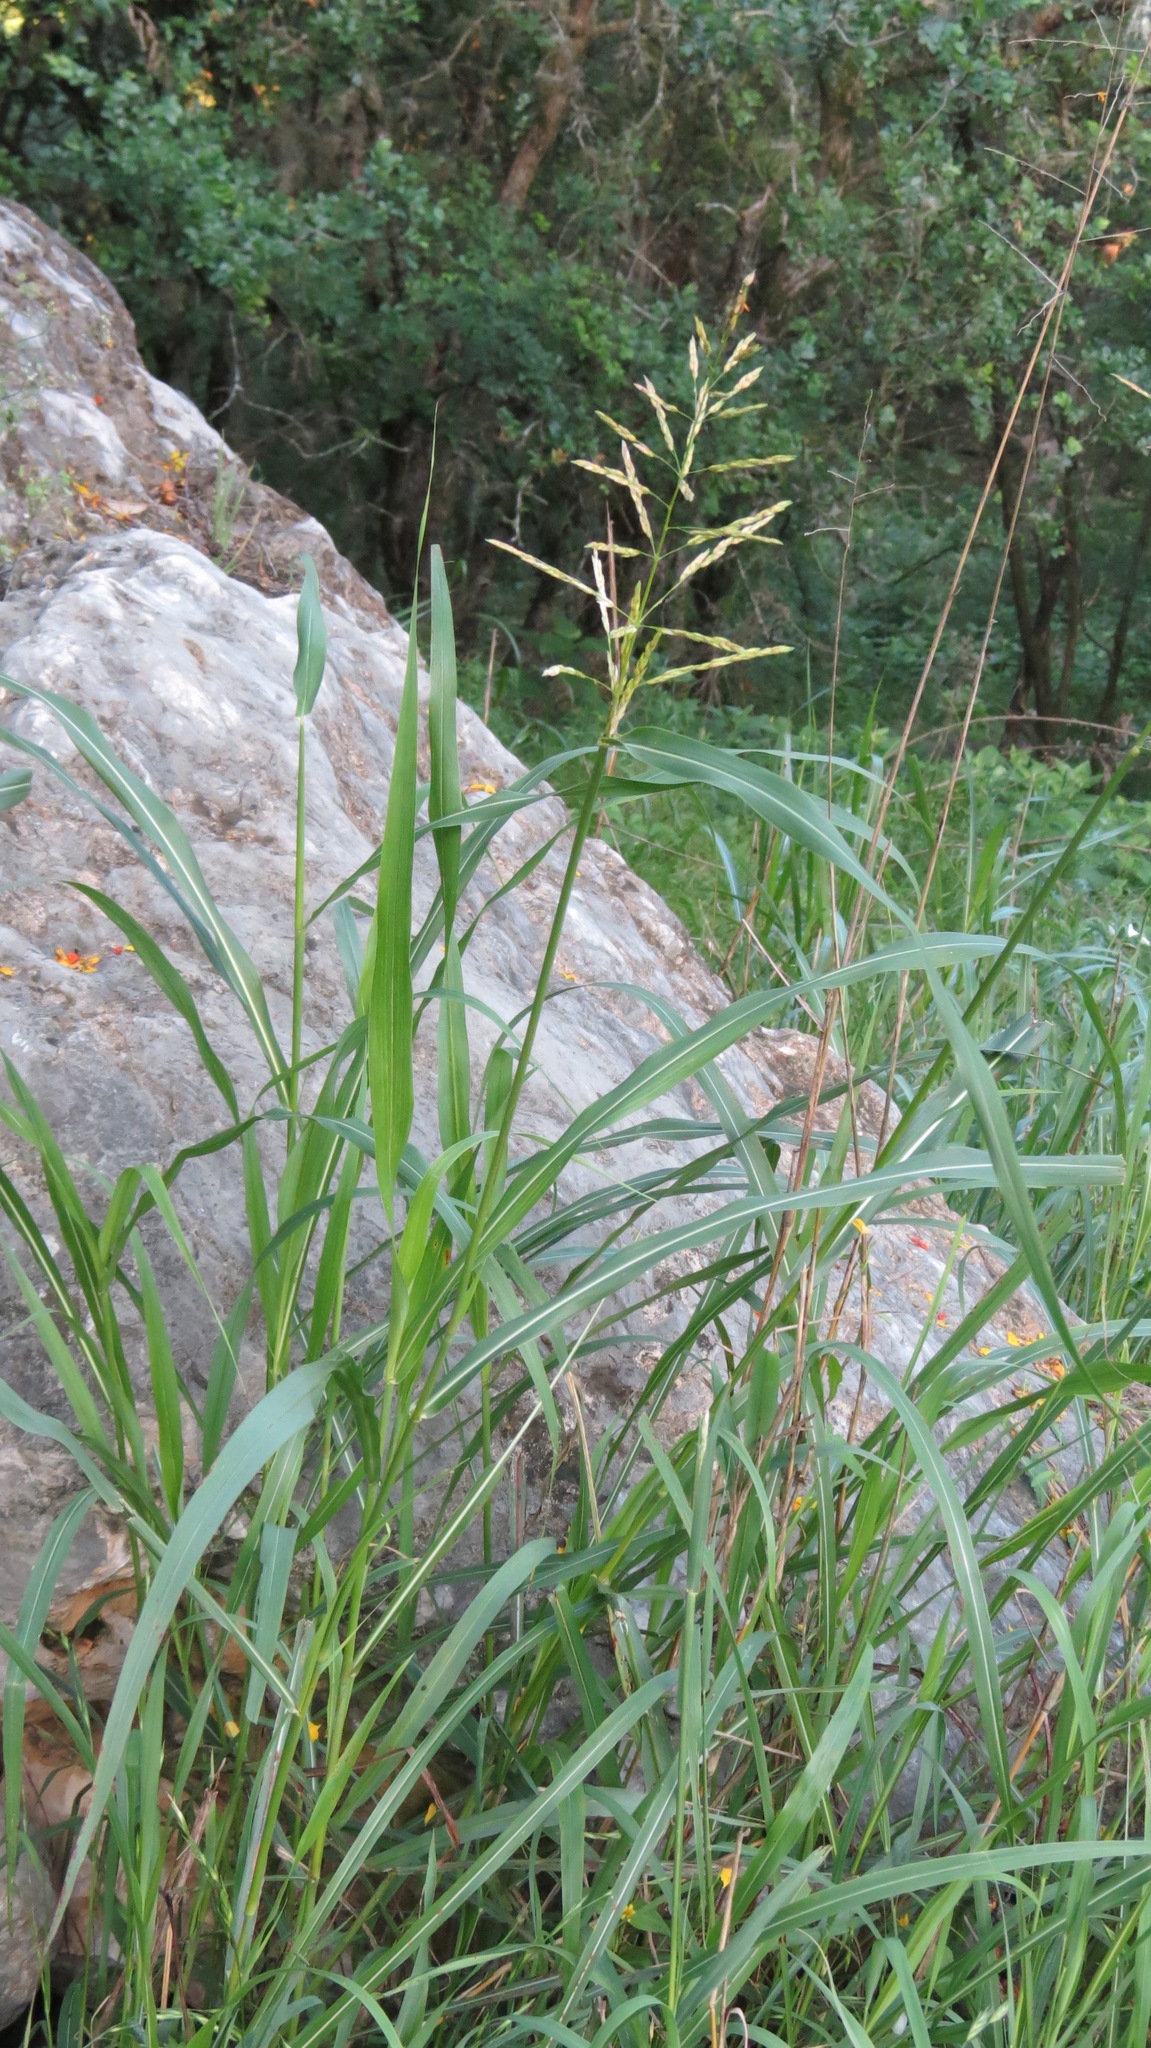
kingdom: Plantae
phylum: Tracheophyta
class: Liliopsida
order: Poales
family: Poaceae
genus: Sorghum
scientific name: Sorghum halepense
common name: Johnson-grass
